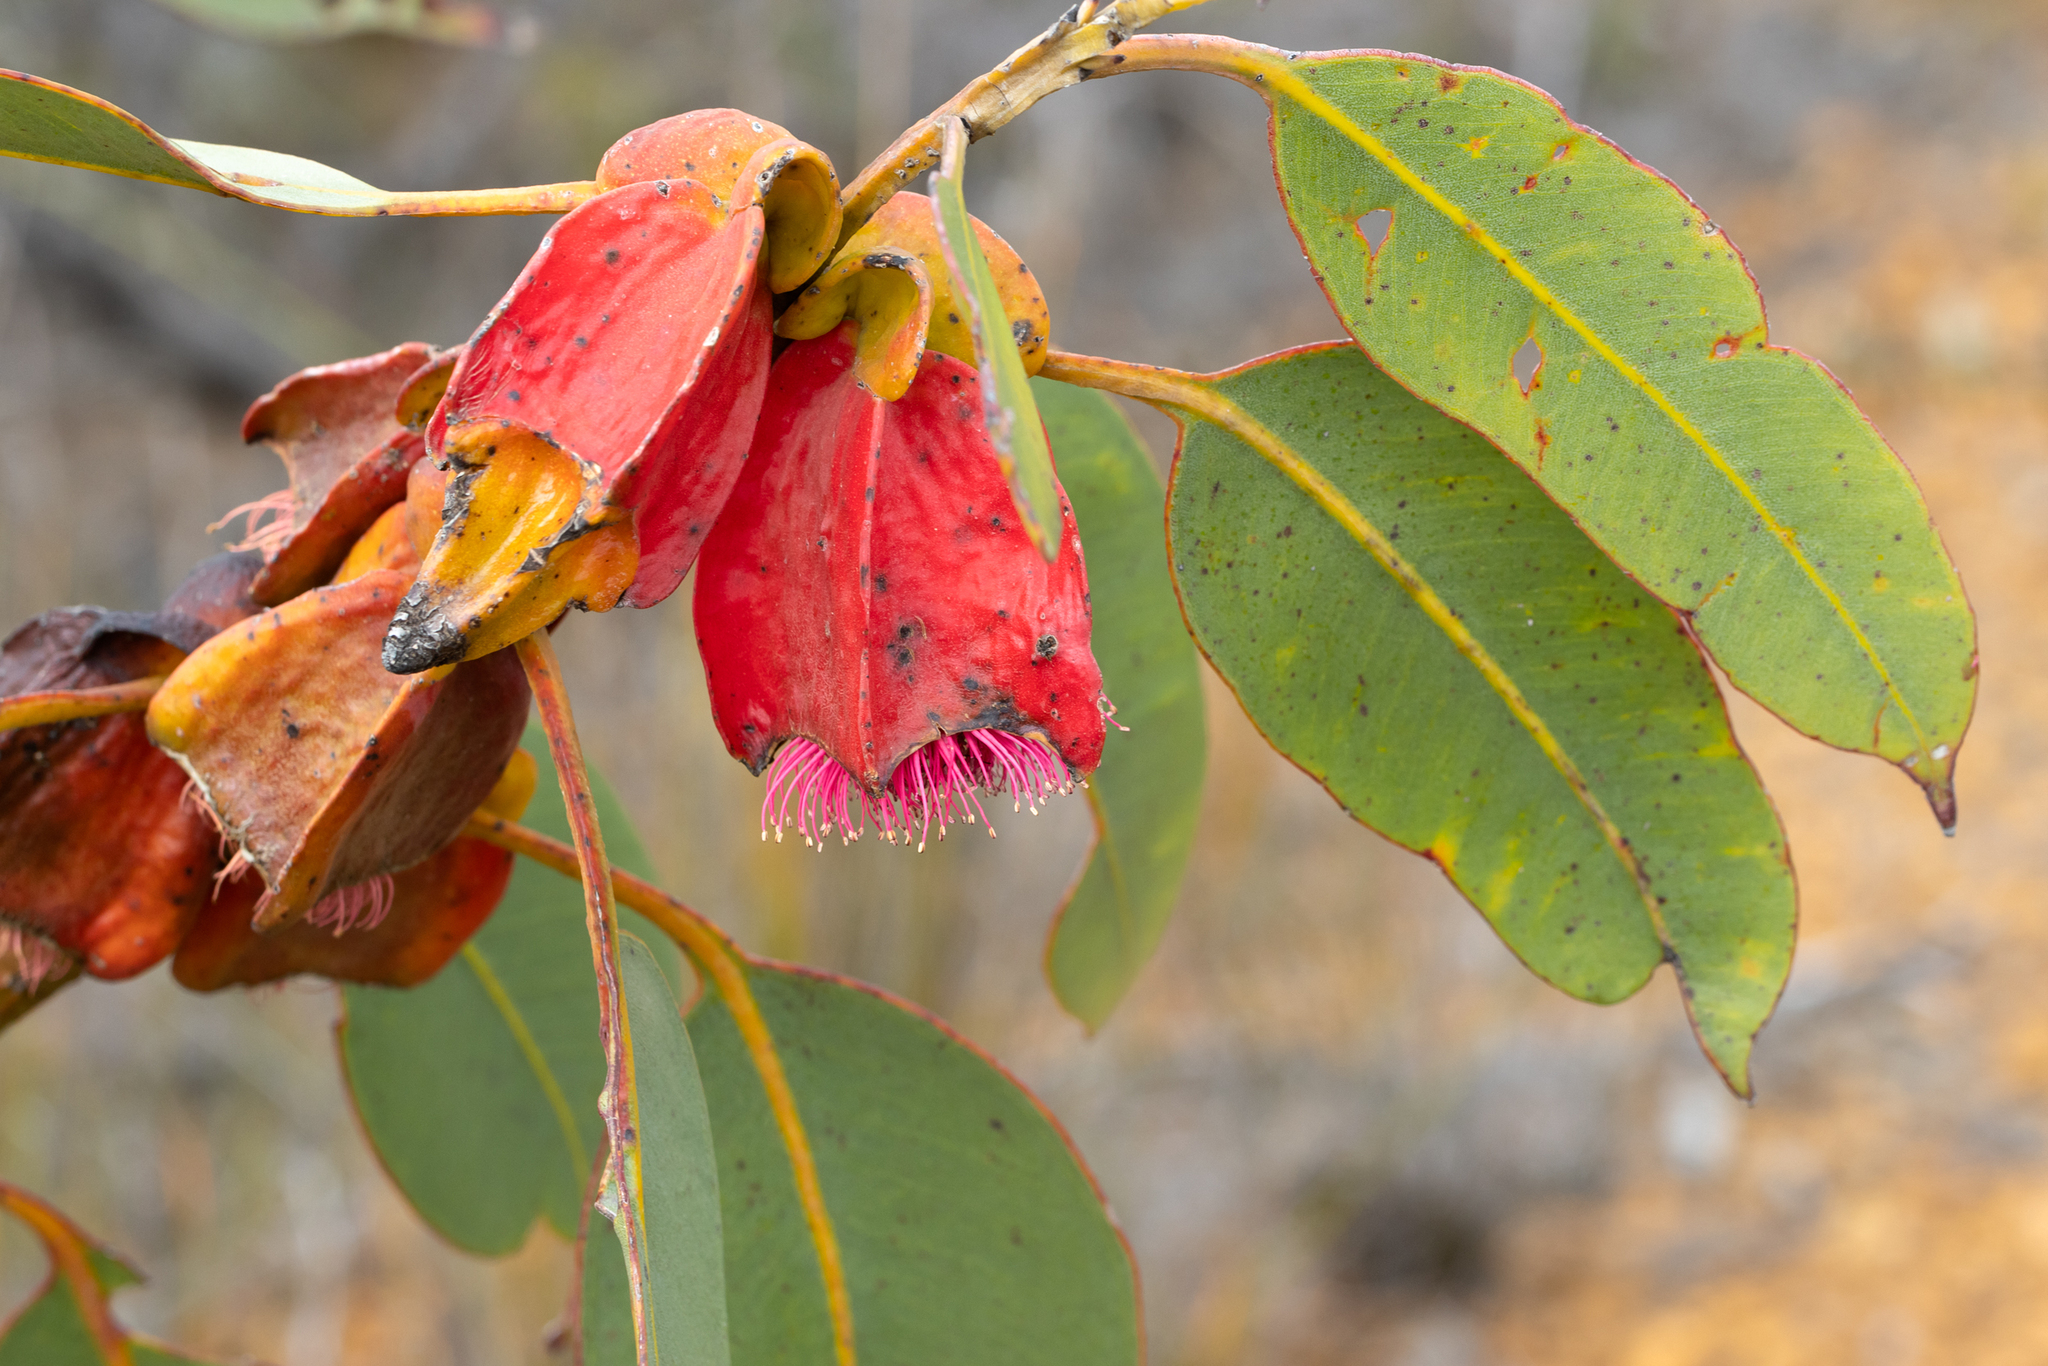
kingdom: Plantae
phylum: Tracheophyta
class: Magnoliopsida
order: Myrtales
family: Myrtaceae
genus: Eucalyptus
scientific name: Eucalyptus tetraptera
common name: Four-wing mallee
